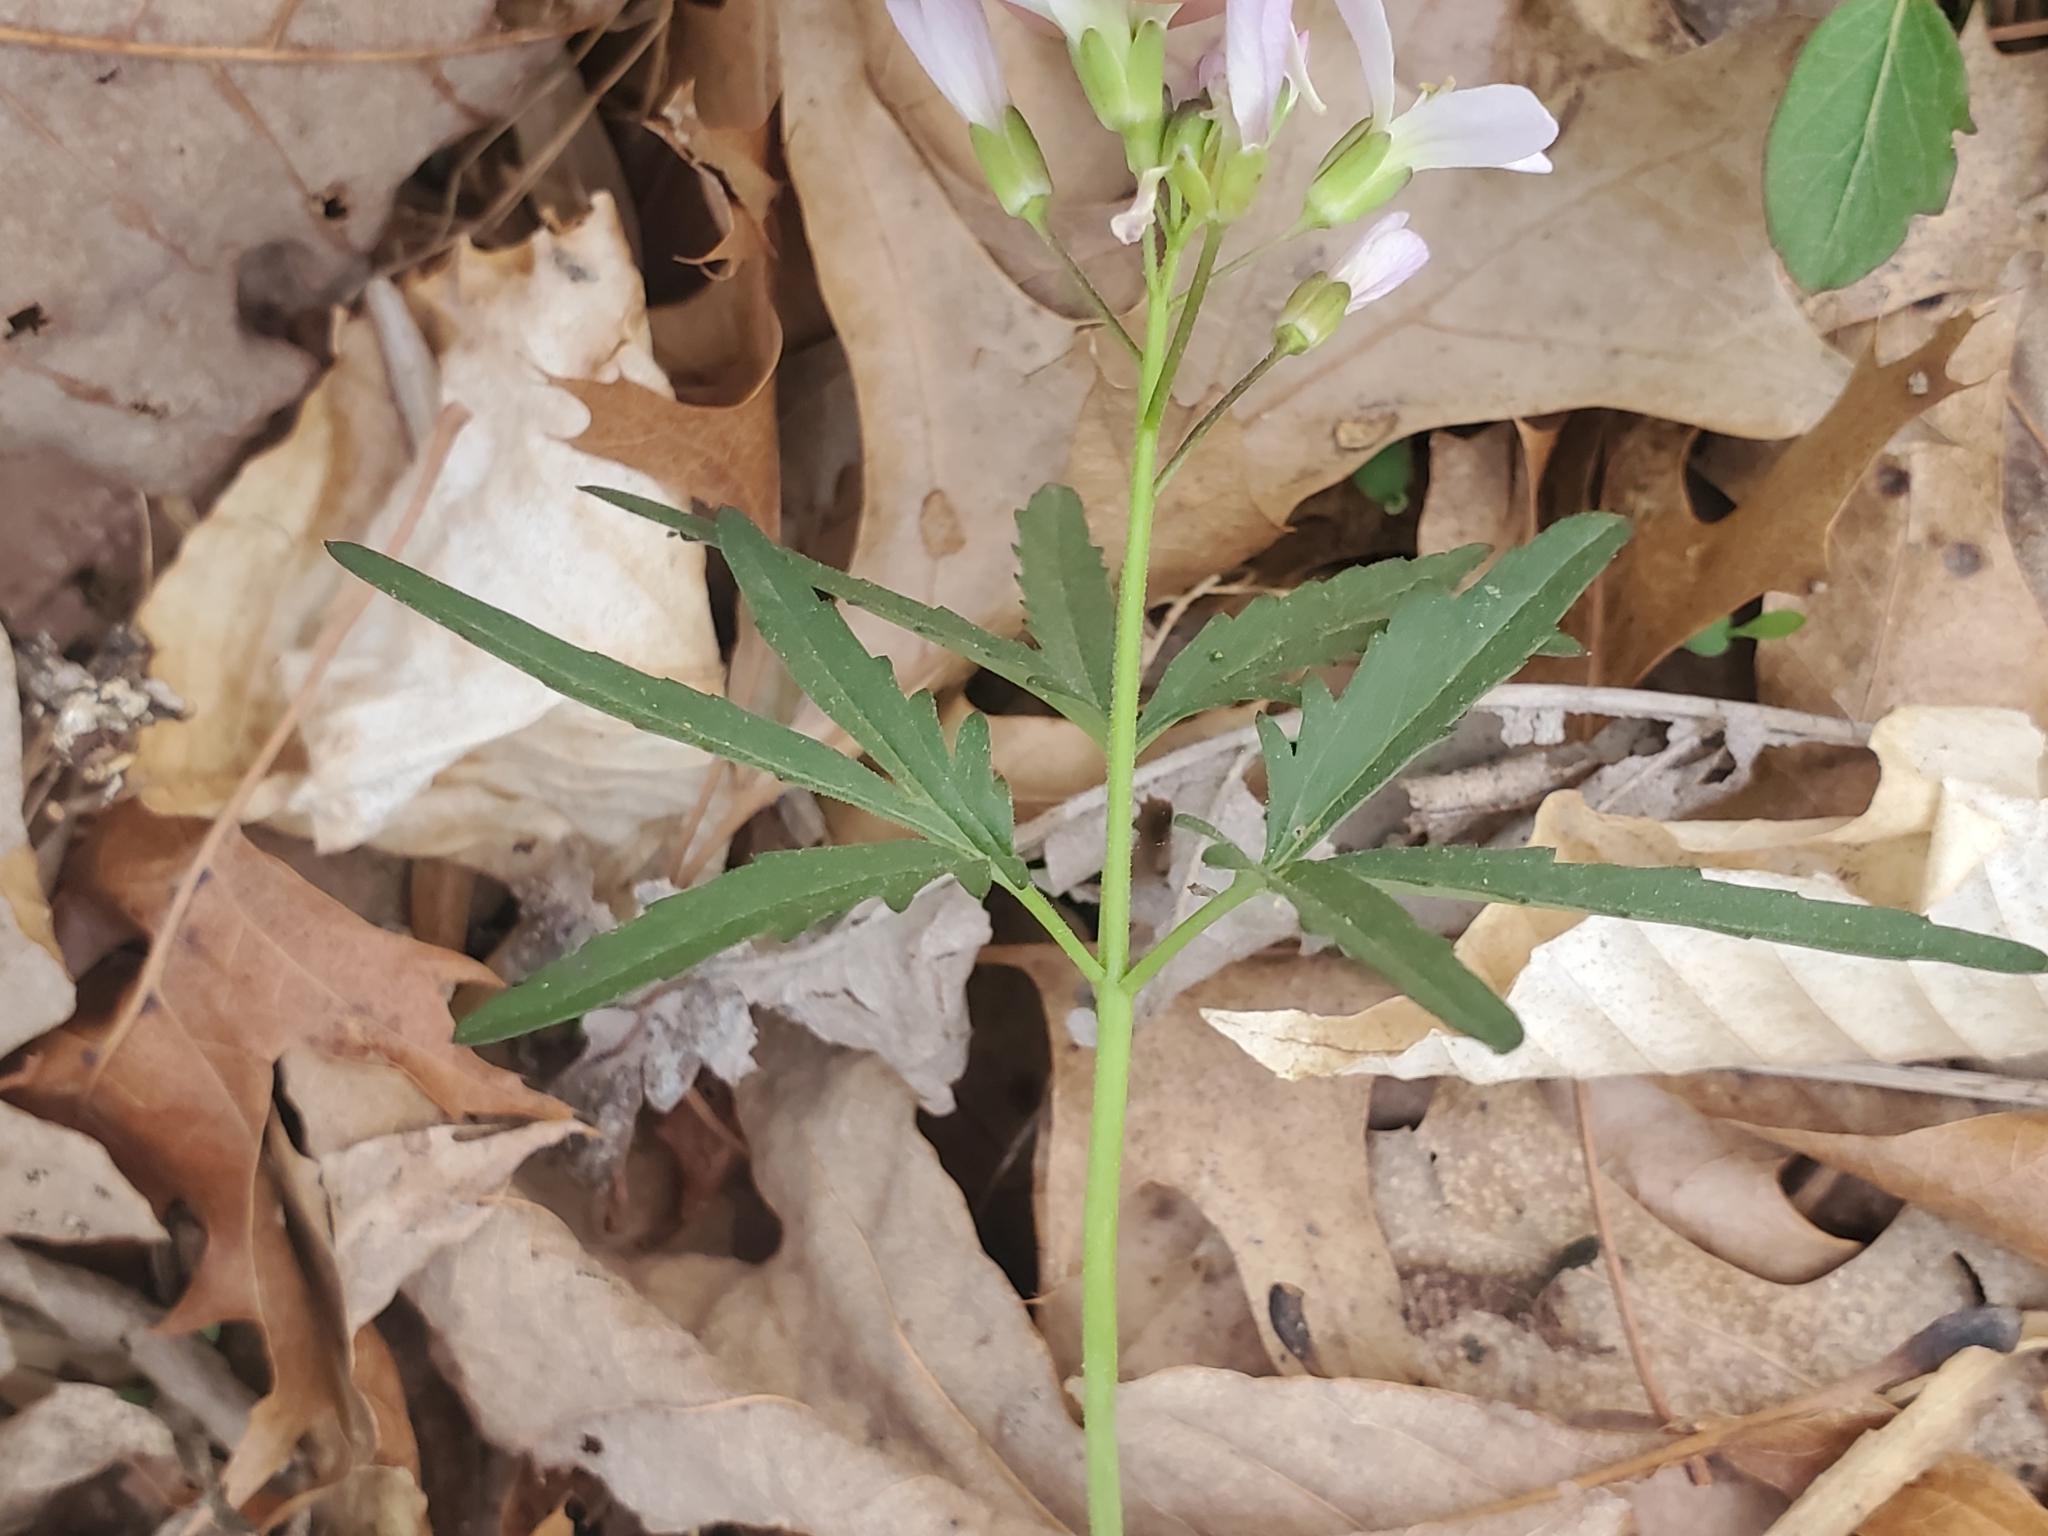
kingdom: Plantae
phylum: Tracheophyta
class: Magnoliopsida
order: Brassicales
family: Brassicaceae
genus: Cardamine
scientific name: Cardamine concatenata
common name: Cut-leaf toothcup
